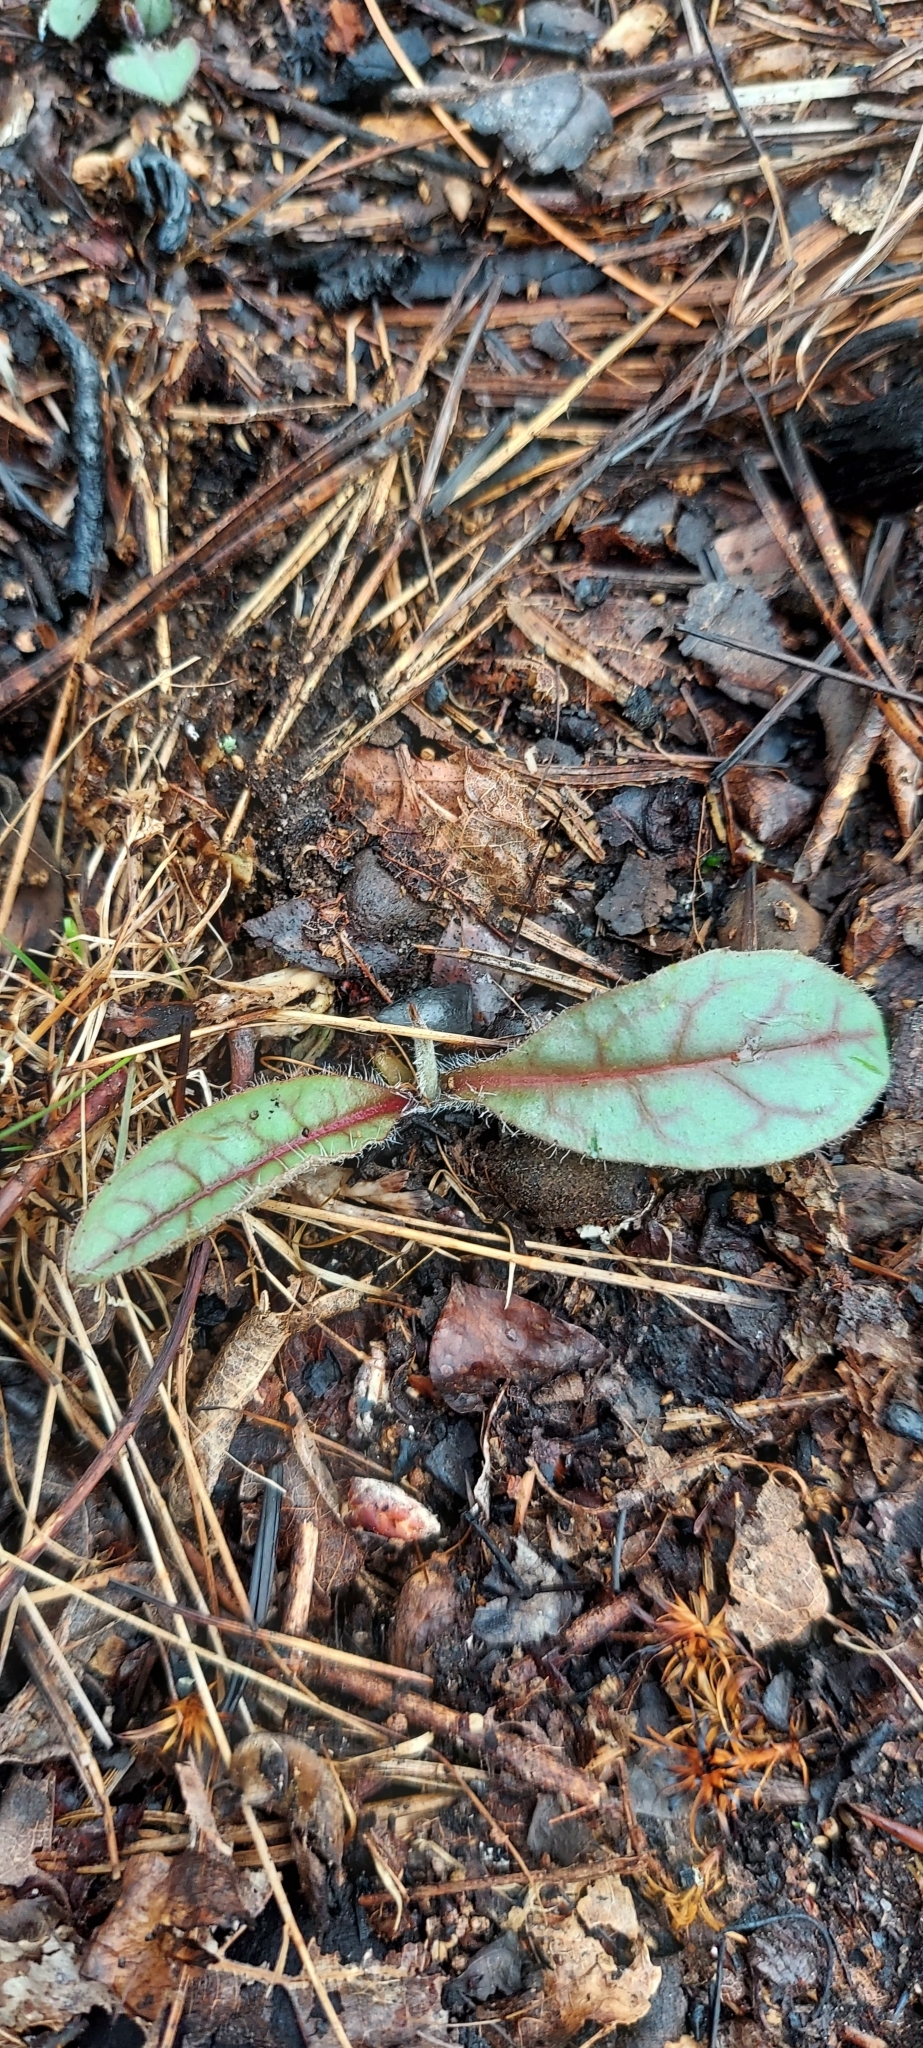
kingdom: Plantae
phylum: Tracheophyta
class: Magnoliopsida
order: Asterales
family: Asteraceae
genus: Hieracium
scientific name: Hieracium venosum
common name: Rattlesnake hawkweed
